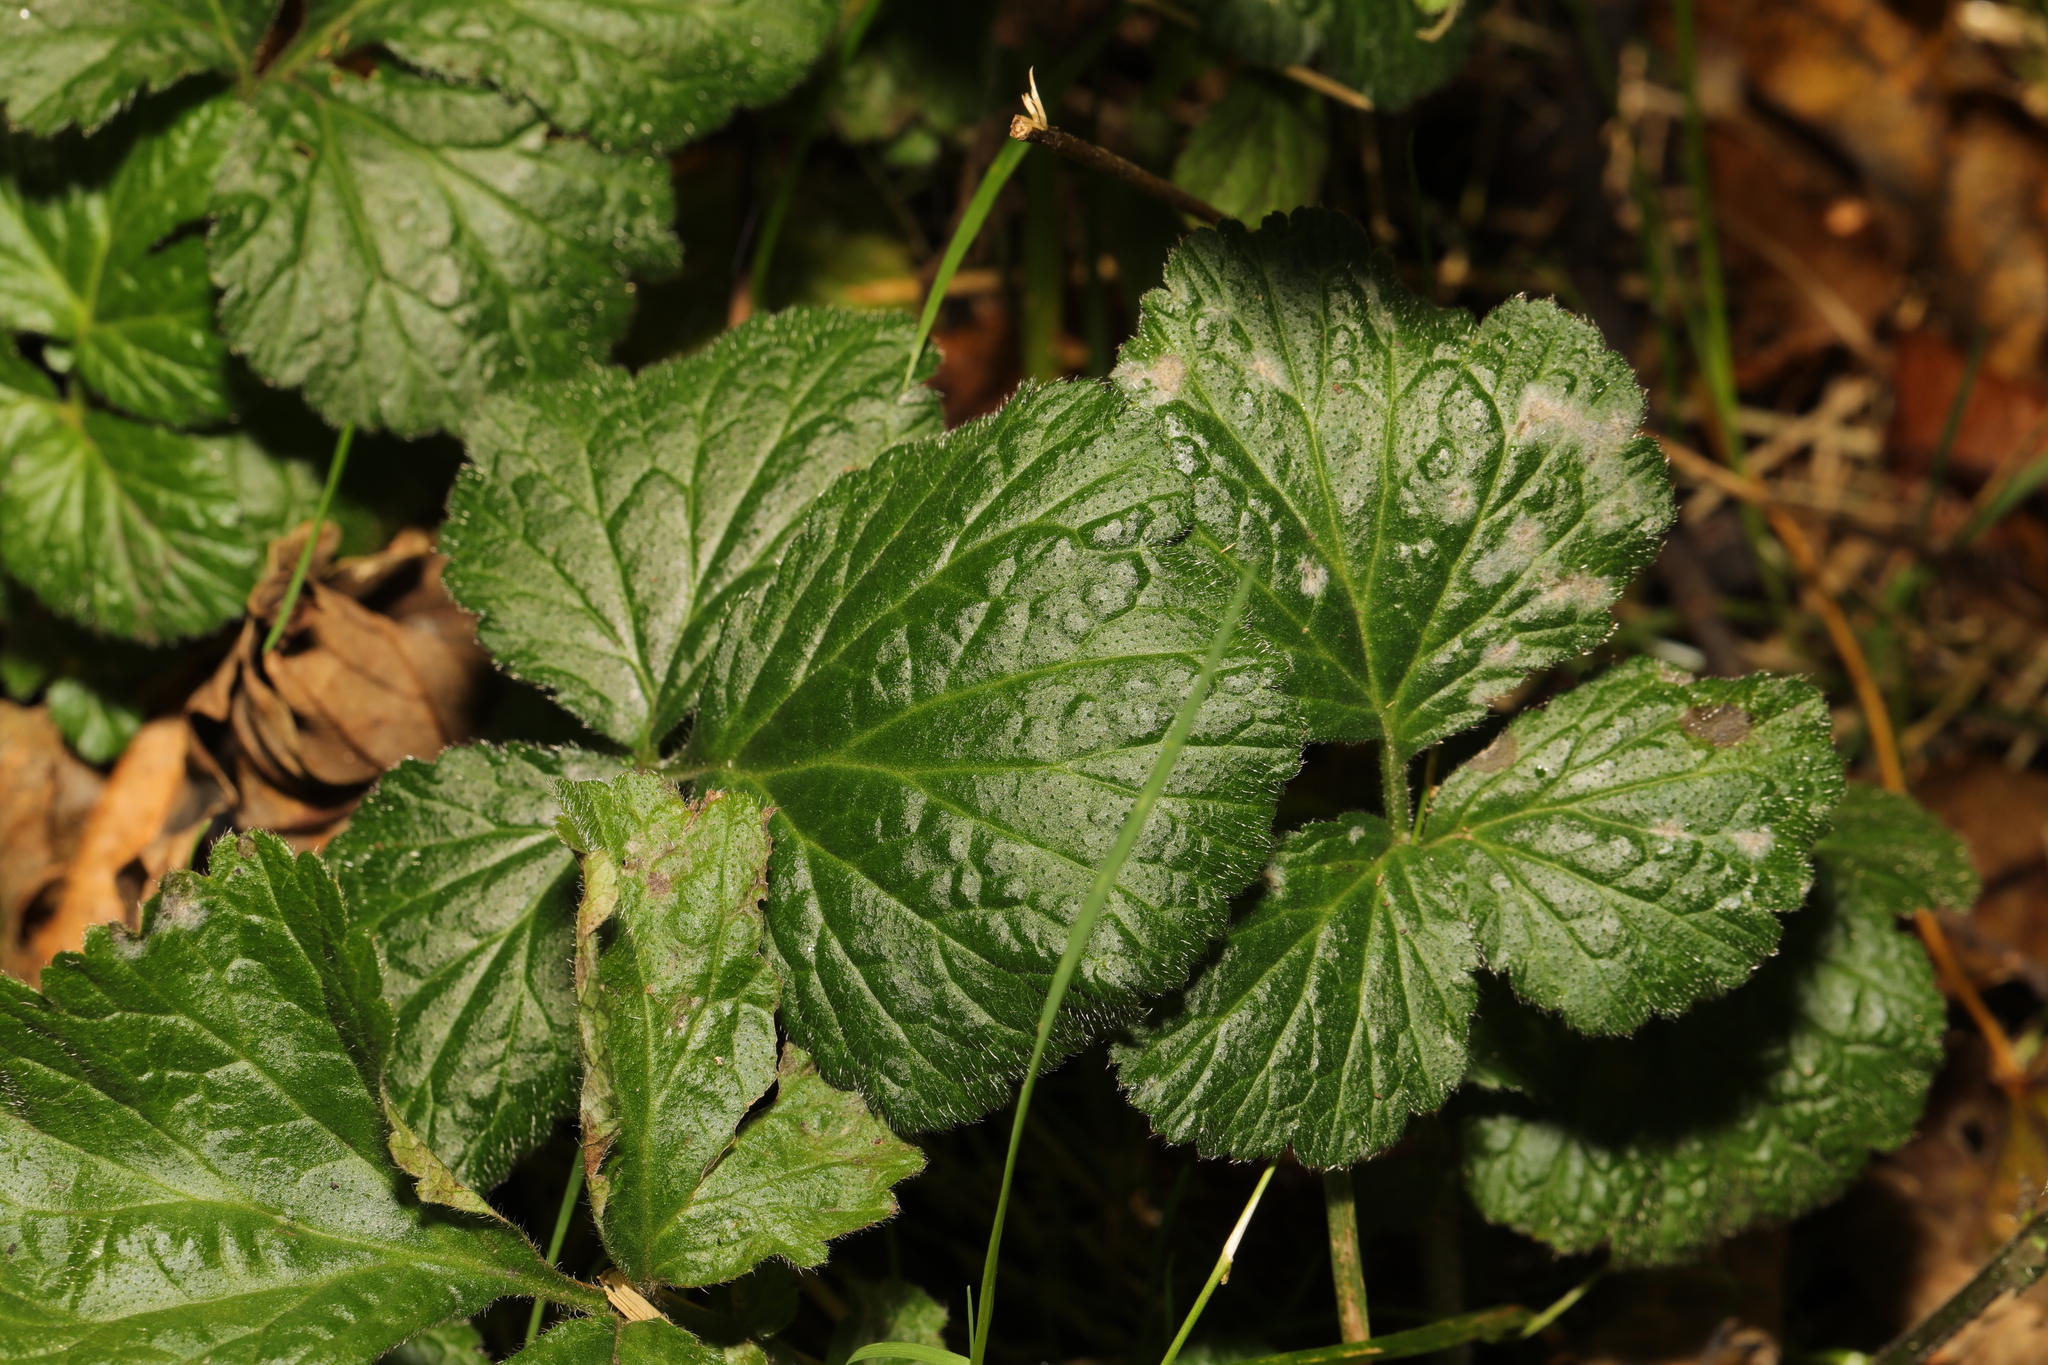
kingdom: Plantae
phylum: Tracheophyta
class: Magnoliopsida
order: Rosales
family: Rosaceae
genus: Geum
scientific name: Geum urbanum
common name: Wood avens
